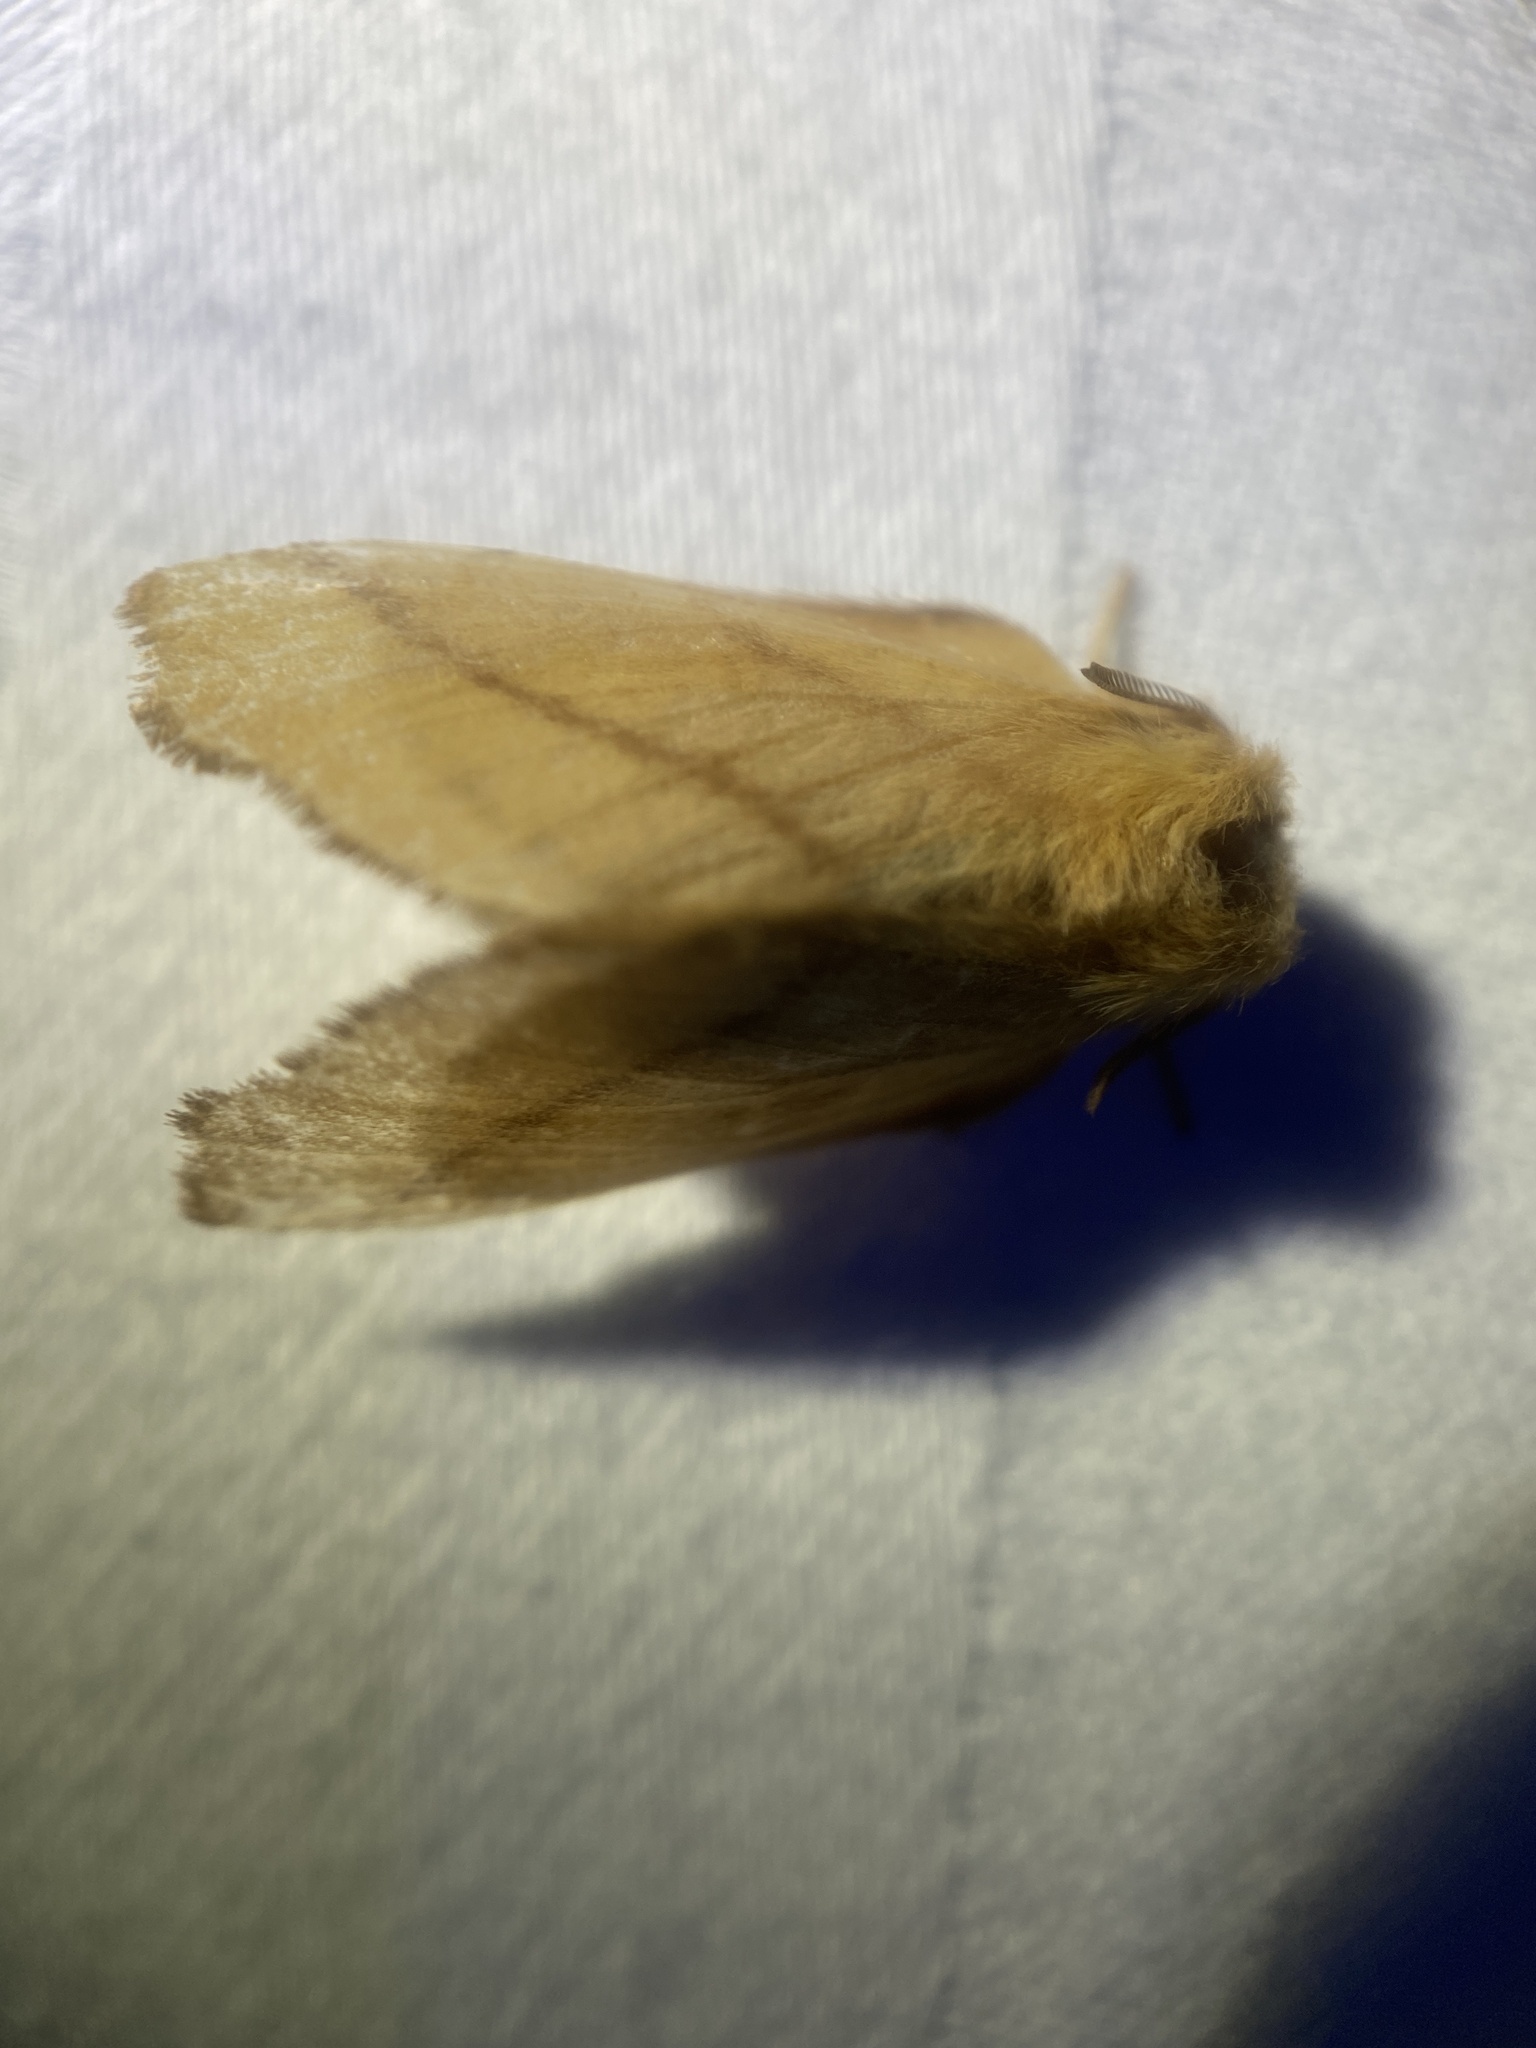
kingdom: Animalia
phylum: Arthropoda
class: Insecta
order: Lepidoptera
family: Lasiocampidae
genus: Malacosoma
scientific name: Malacosoma disstria
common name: Forest tent caterpillar
